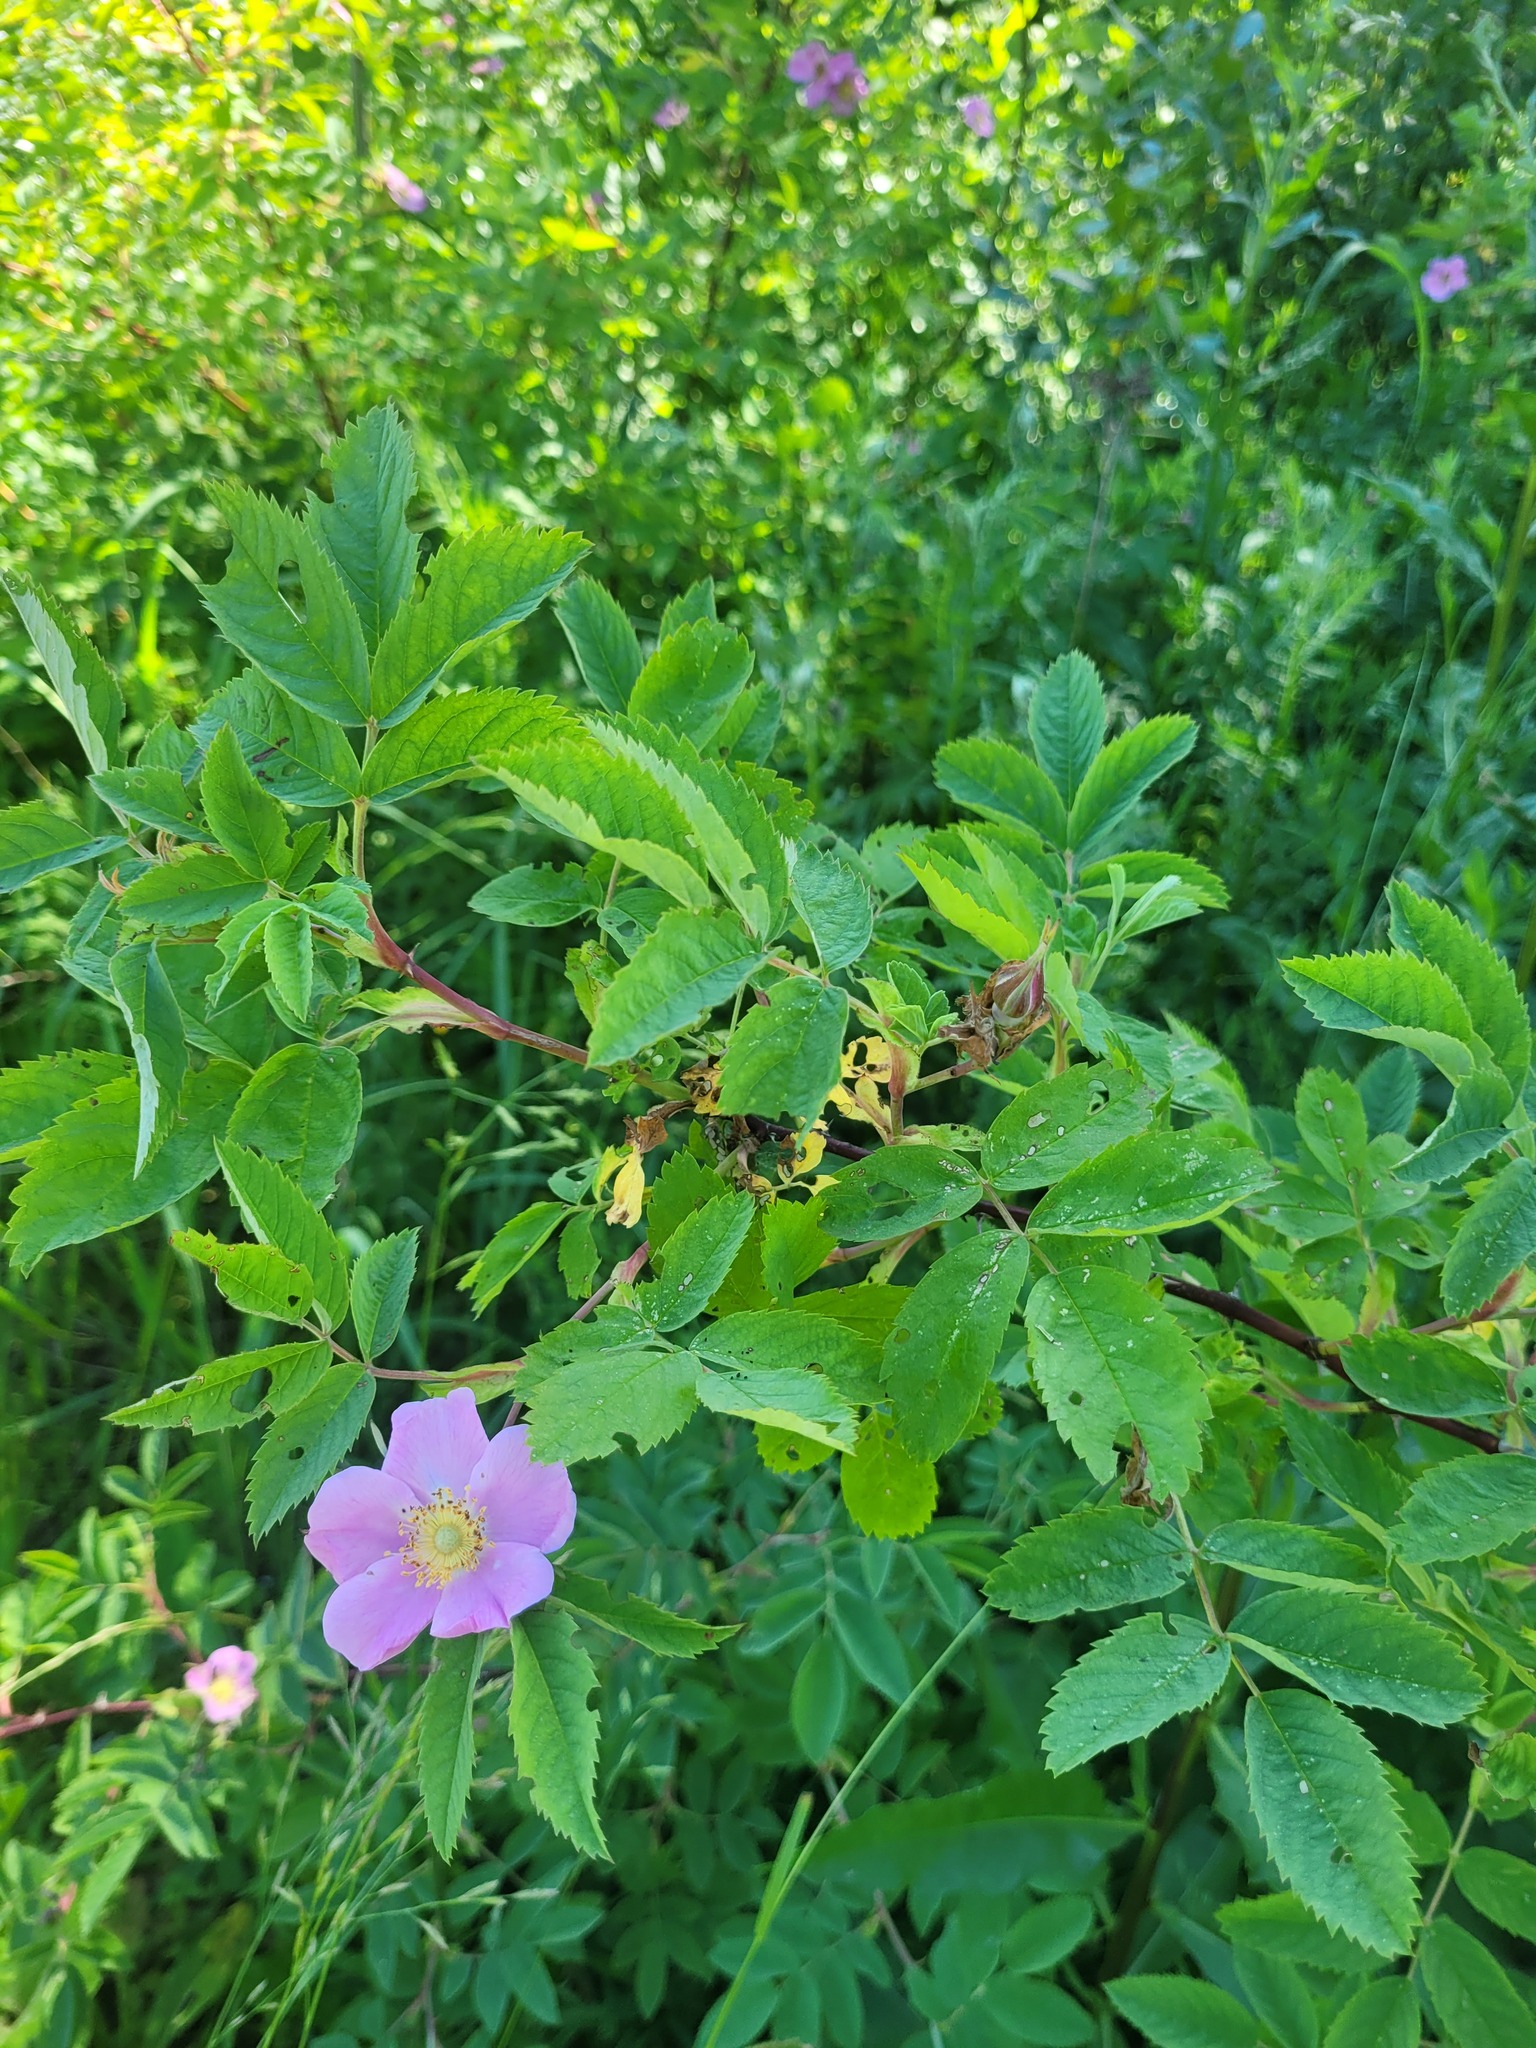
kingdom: Plantae
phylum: Tracheophyta
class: Magnoliopsida
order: Rosales
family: Rosaceae
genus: Rosa
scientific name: Rosa majalis
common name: Cinnamon rose
